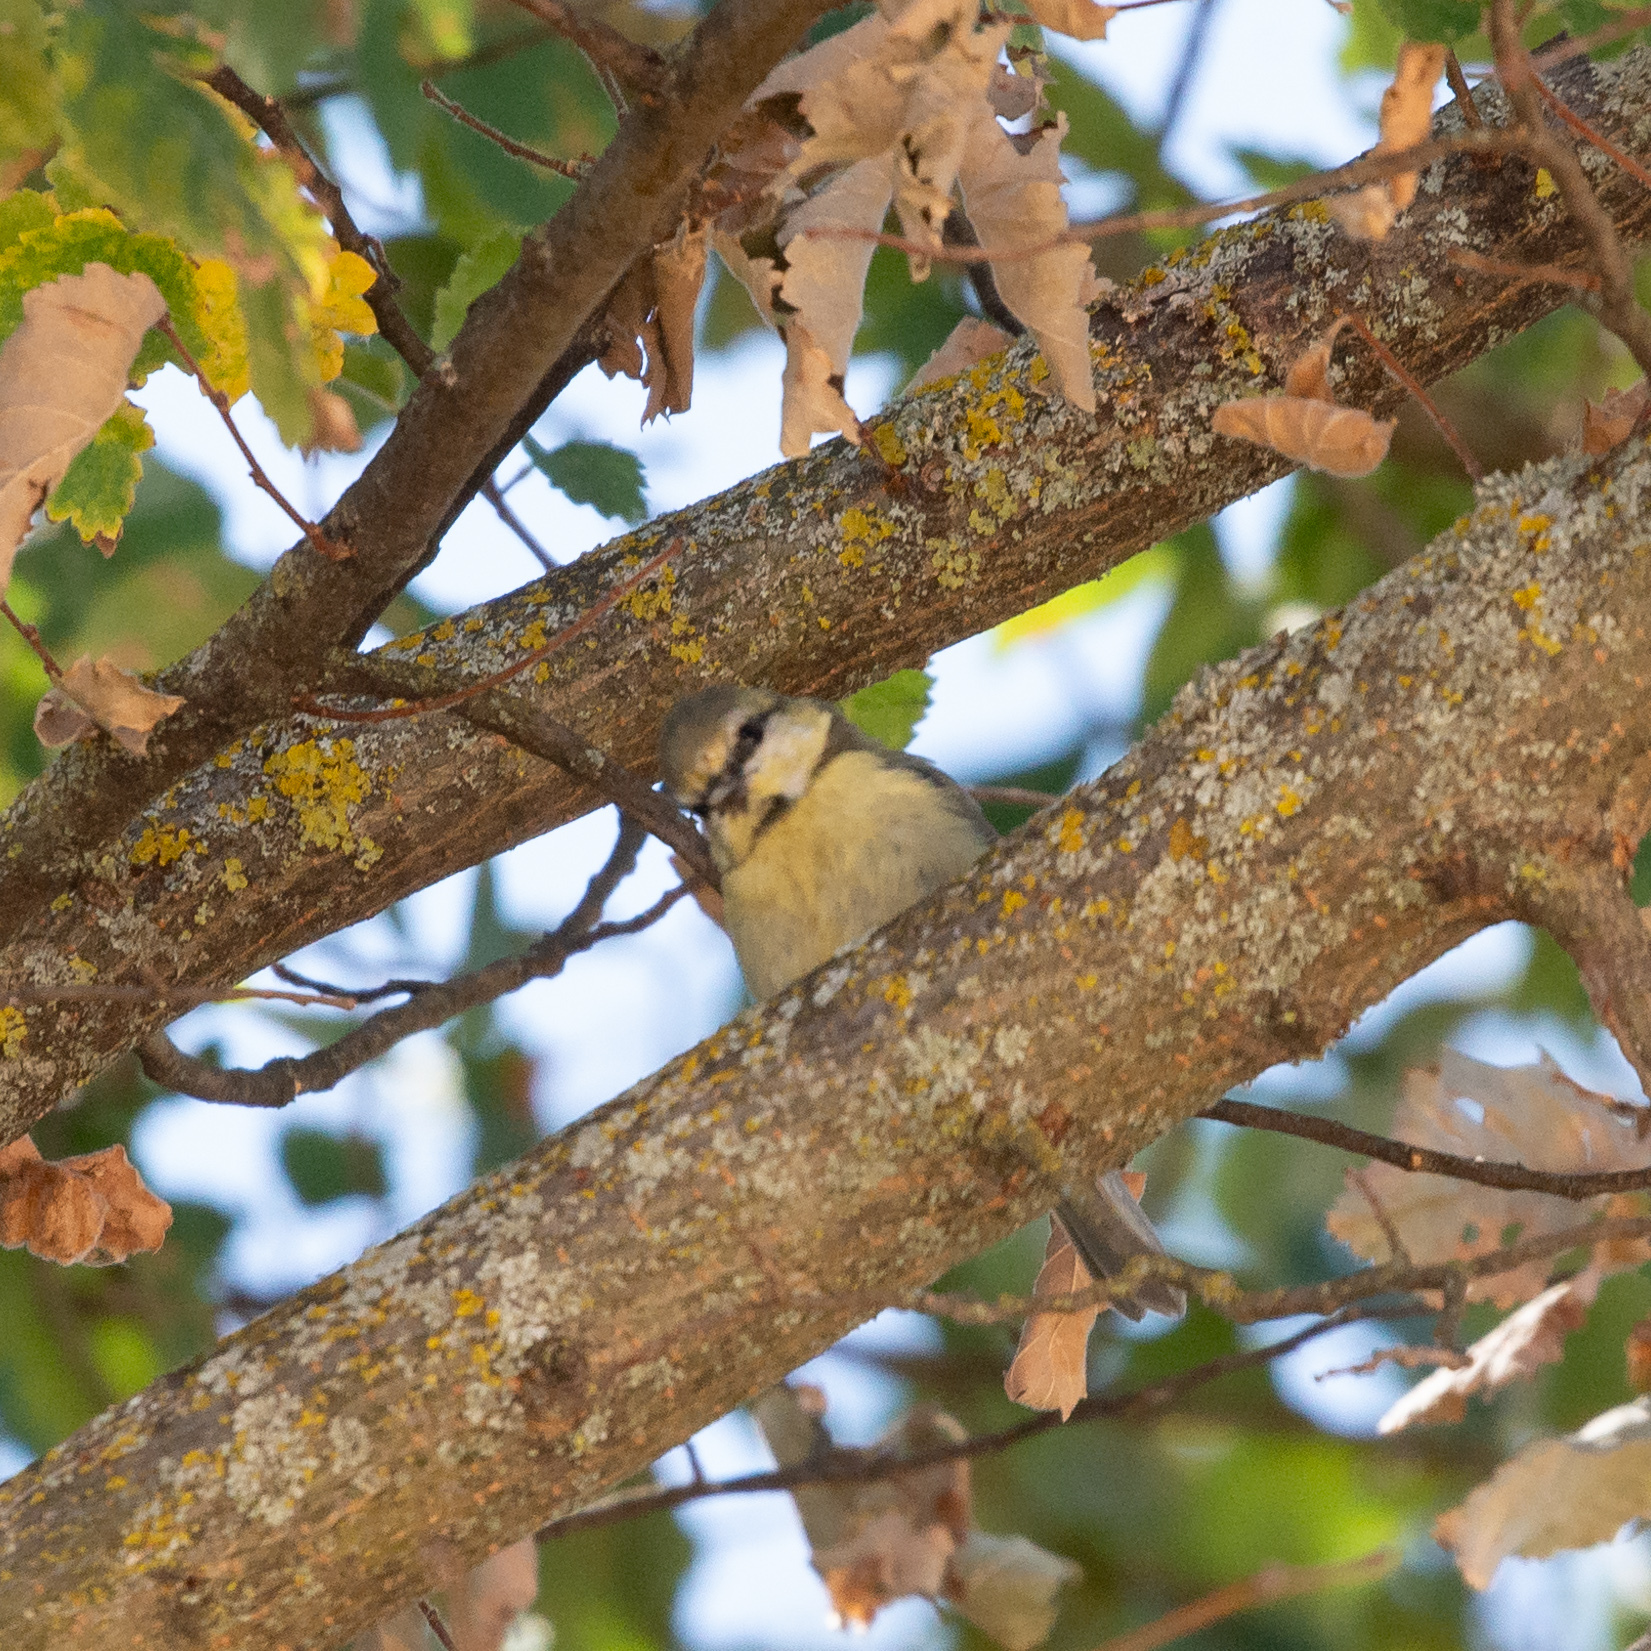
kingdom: Animalia
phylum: Chordata
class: Aves
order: Passeriformes
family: Paridae
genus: Cyanistes
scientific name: Cyanistes caeruleus
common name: Eurasian blue tit
